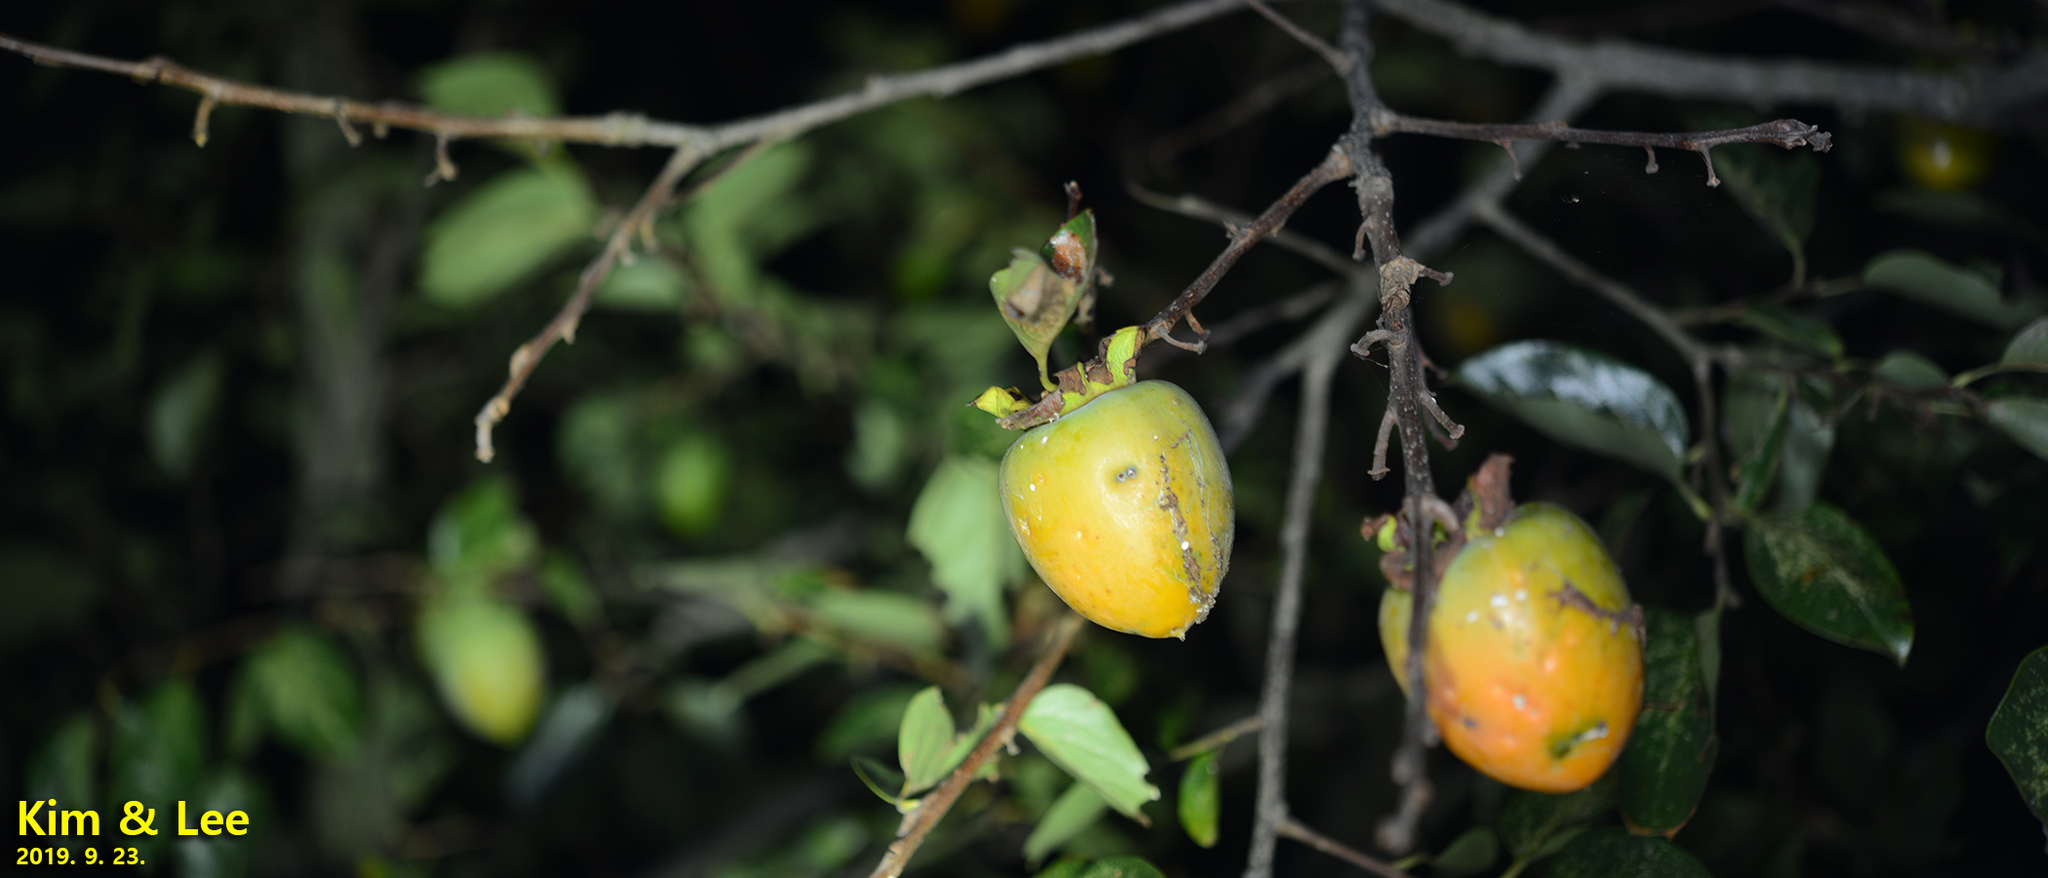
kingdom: Plantae
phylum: Tracheophyta
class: Magnoliopsida
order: Ericales
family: Ebenaceae
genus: Diospyros
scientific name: Diospyros kaki
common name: Persimmon
